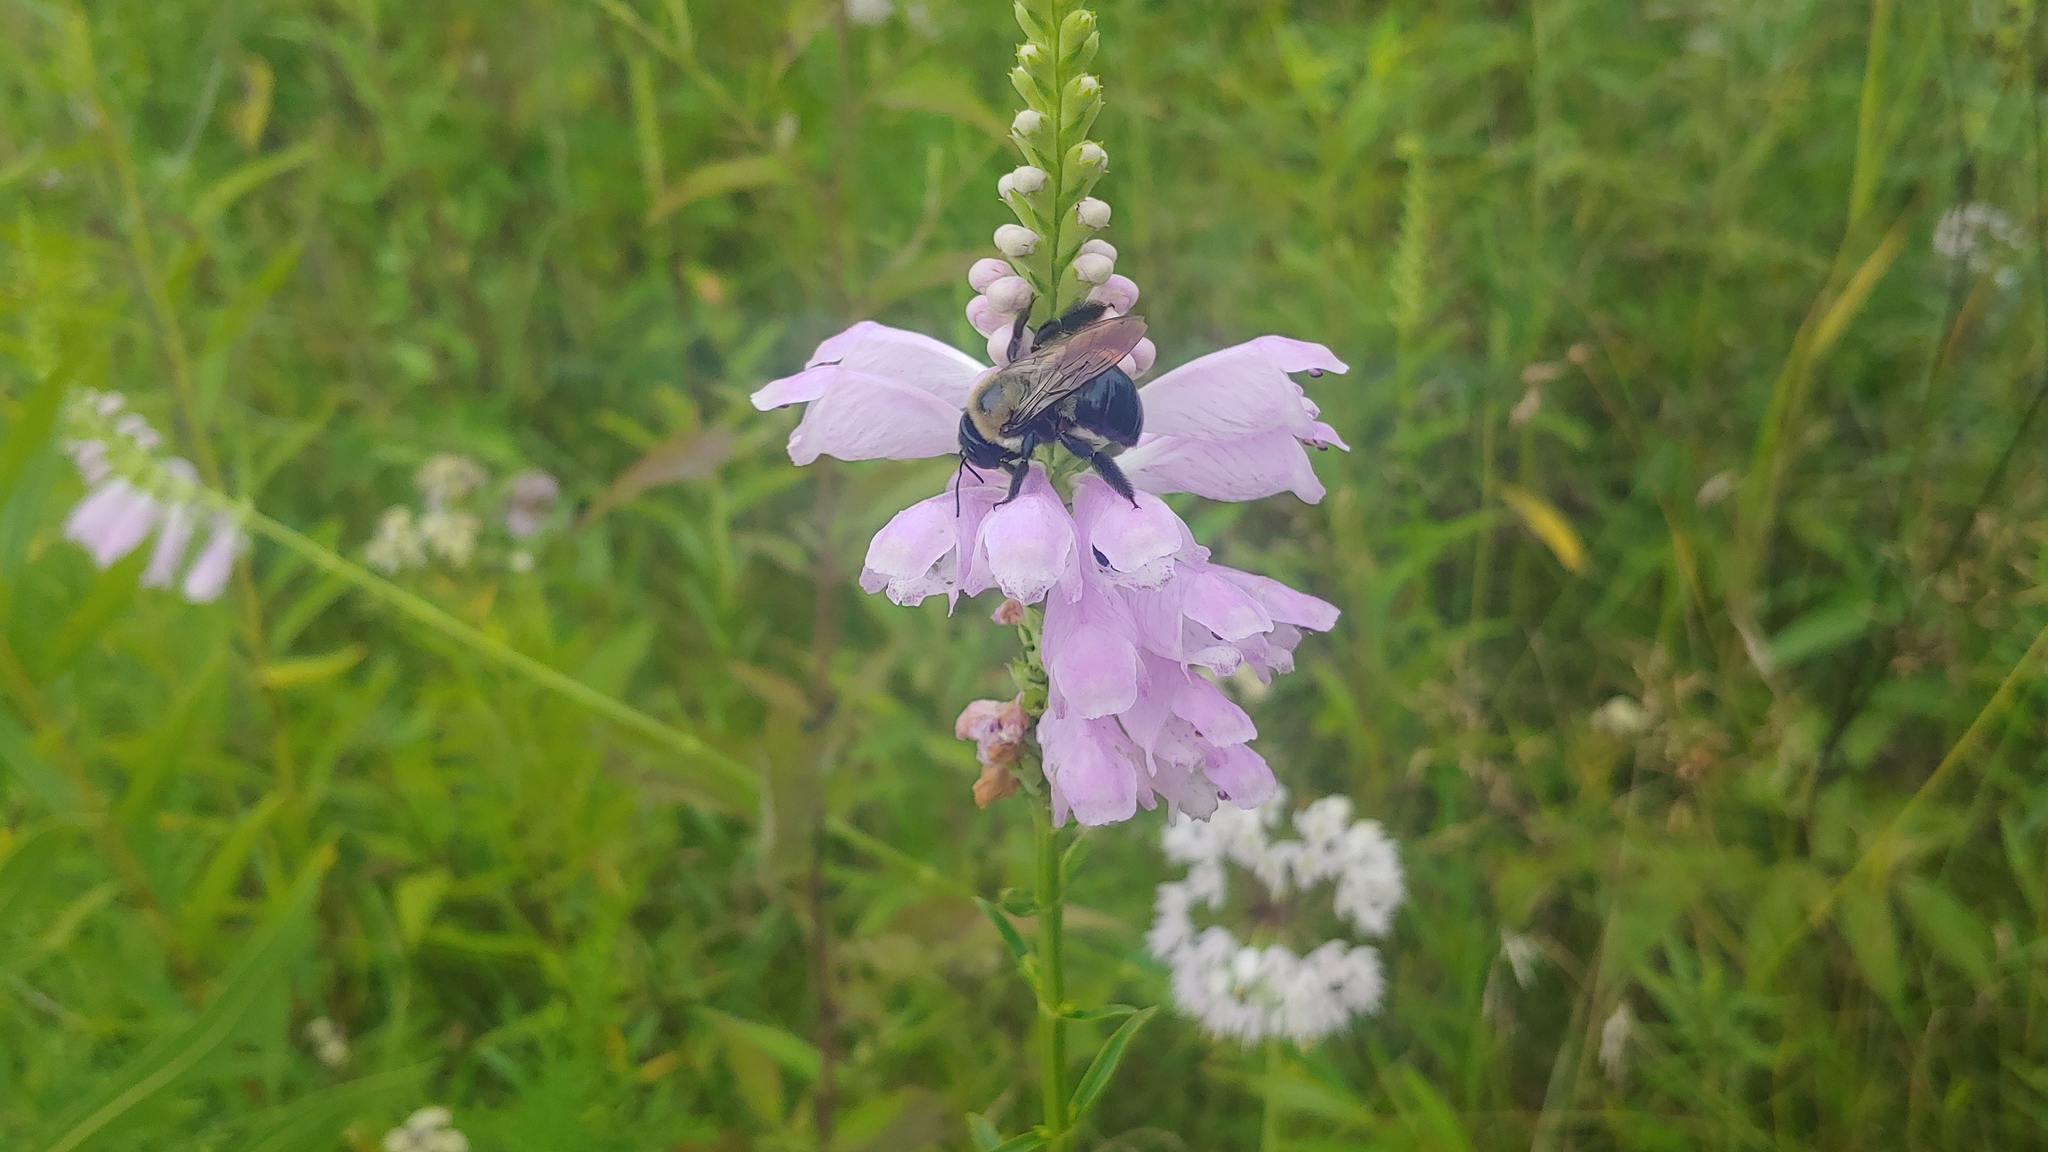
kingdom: Plantae
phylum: Tracheophyta
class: Magnoliopsida
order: Lamiales
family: Lamiaceae
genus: Physostegia
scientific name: Physostegia virginiana
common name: Obedient-plant
